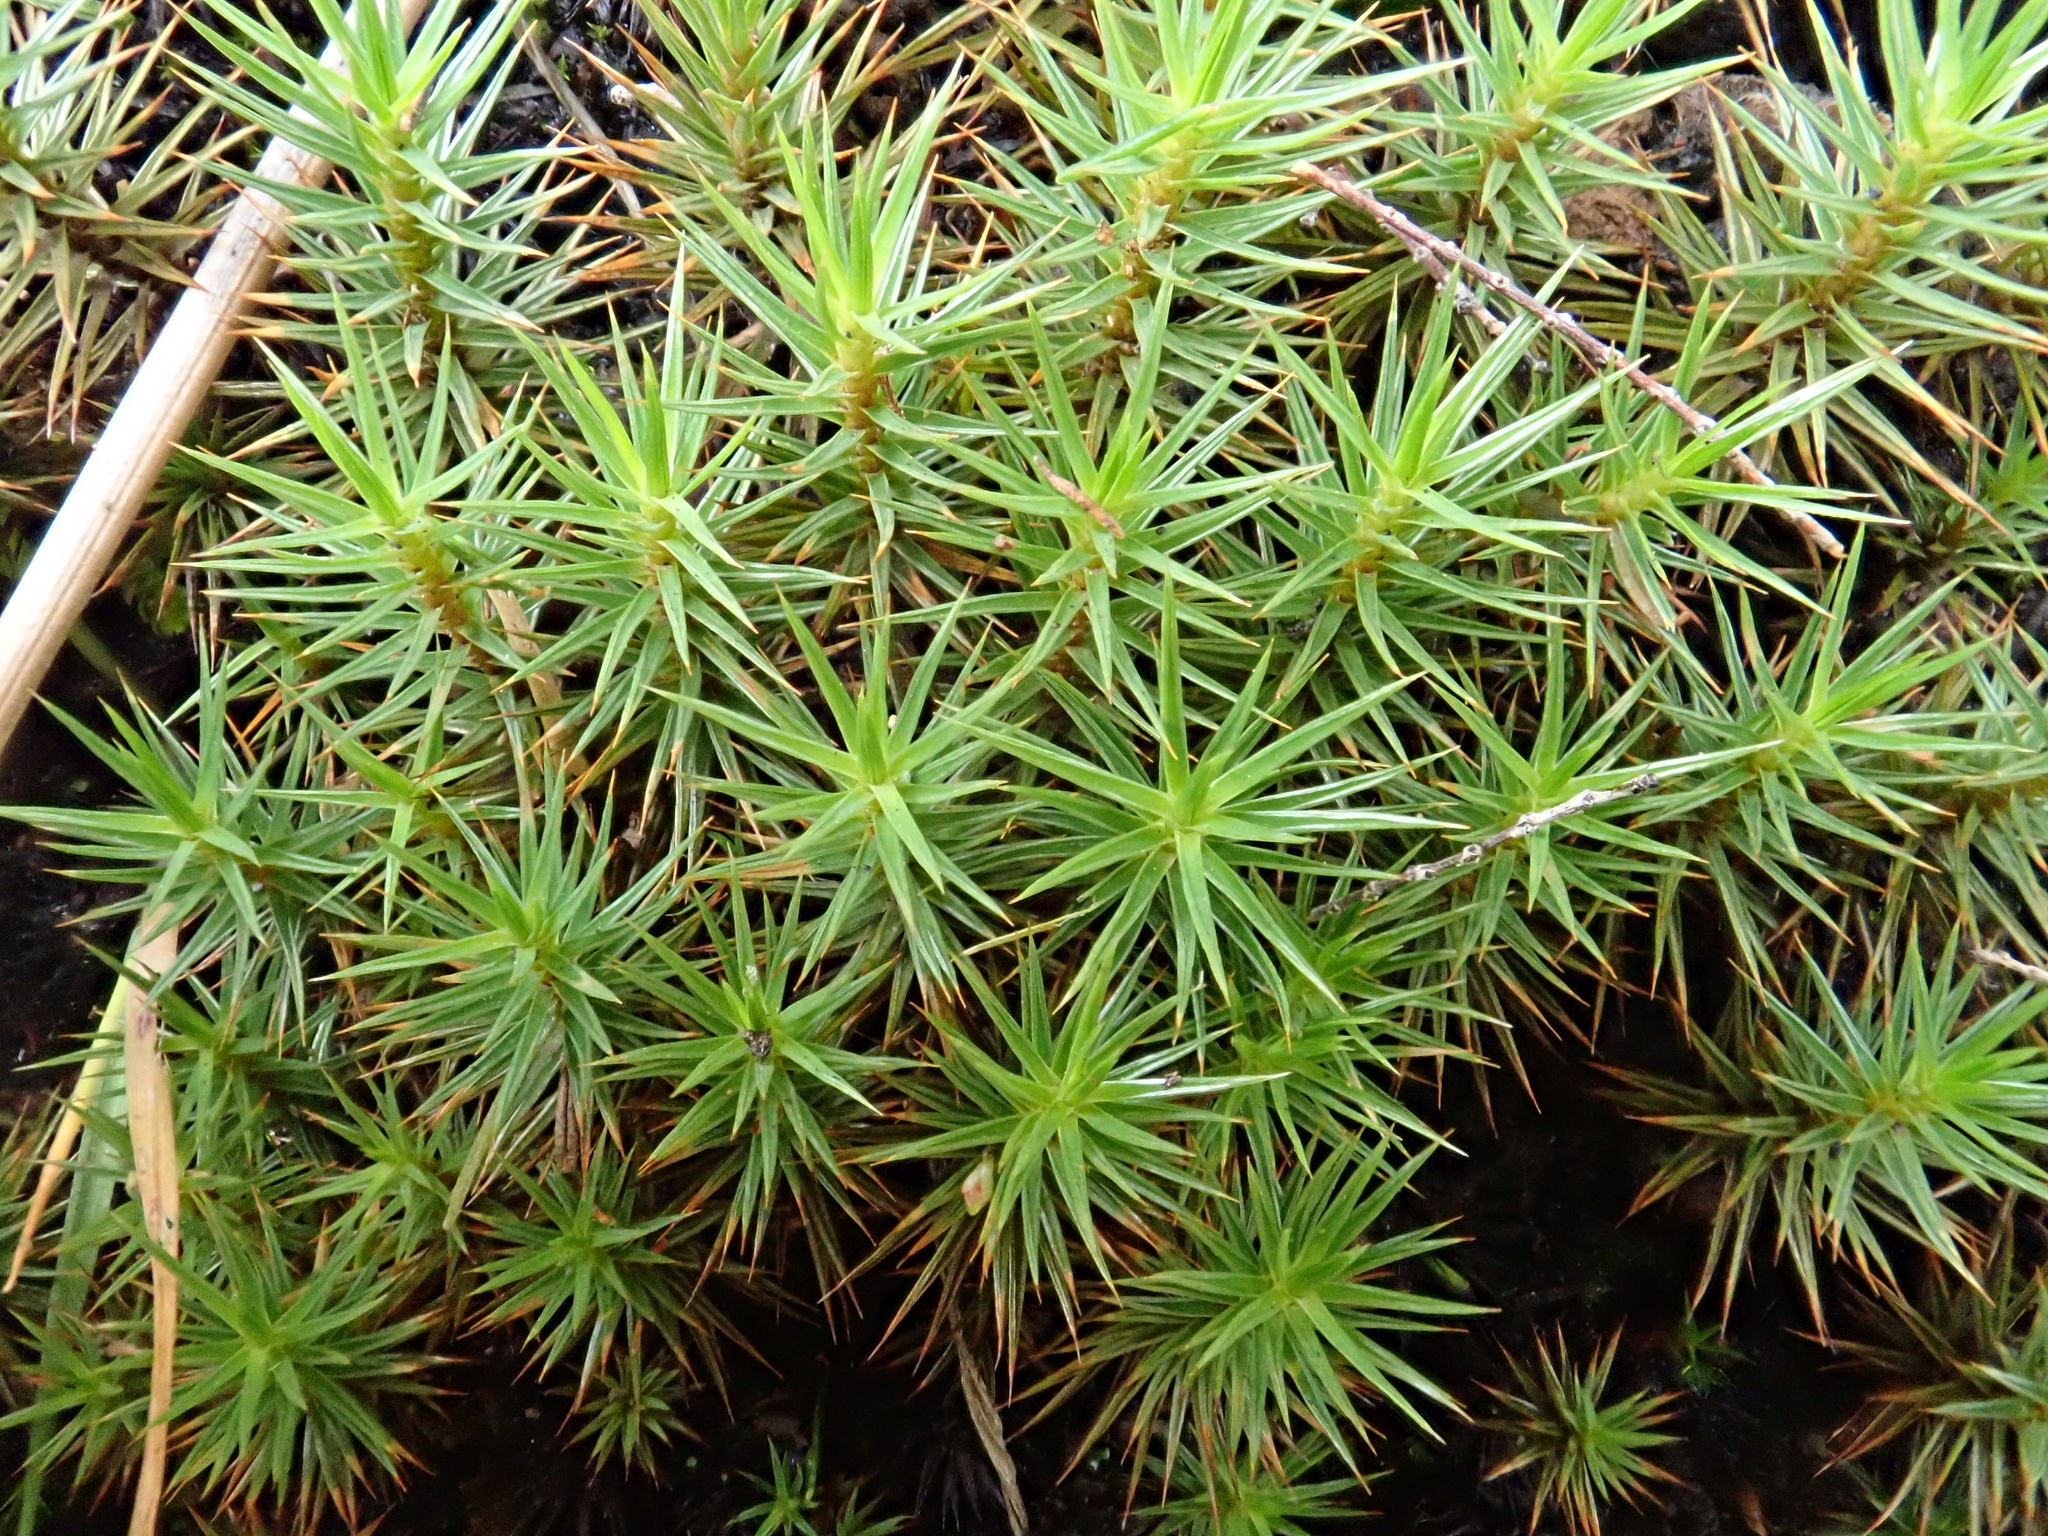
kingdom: Plantae
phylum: Bryophyta
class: Polytrichopsida
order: Polytrichales
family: Polytrichaceae
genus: Polytrichum
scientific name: Polytrichum juniperinum
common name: Juniper haircap moss
